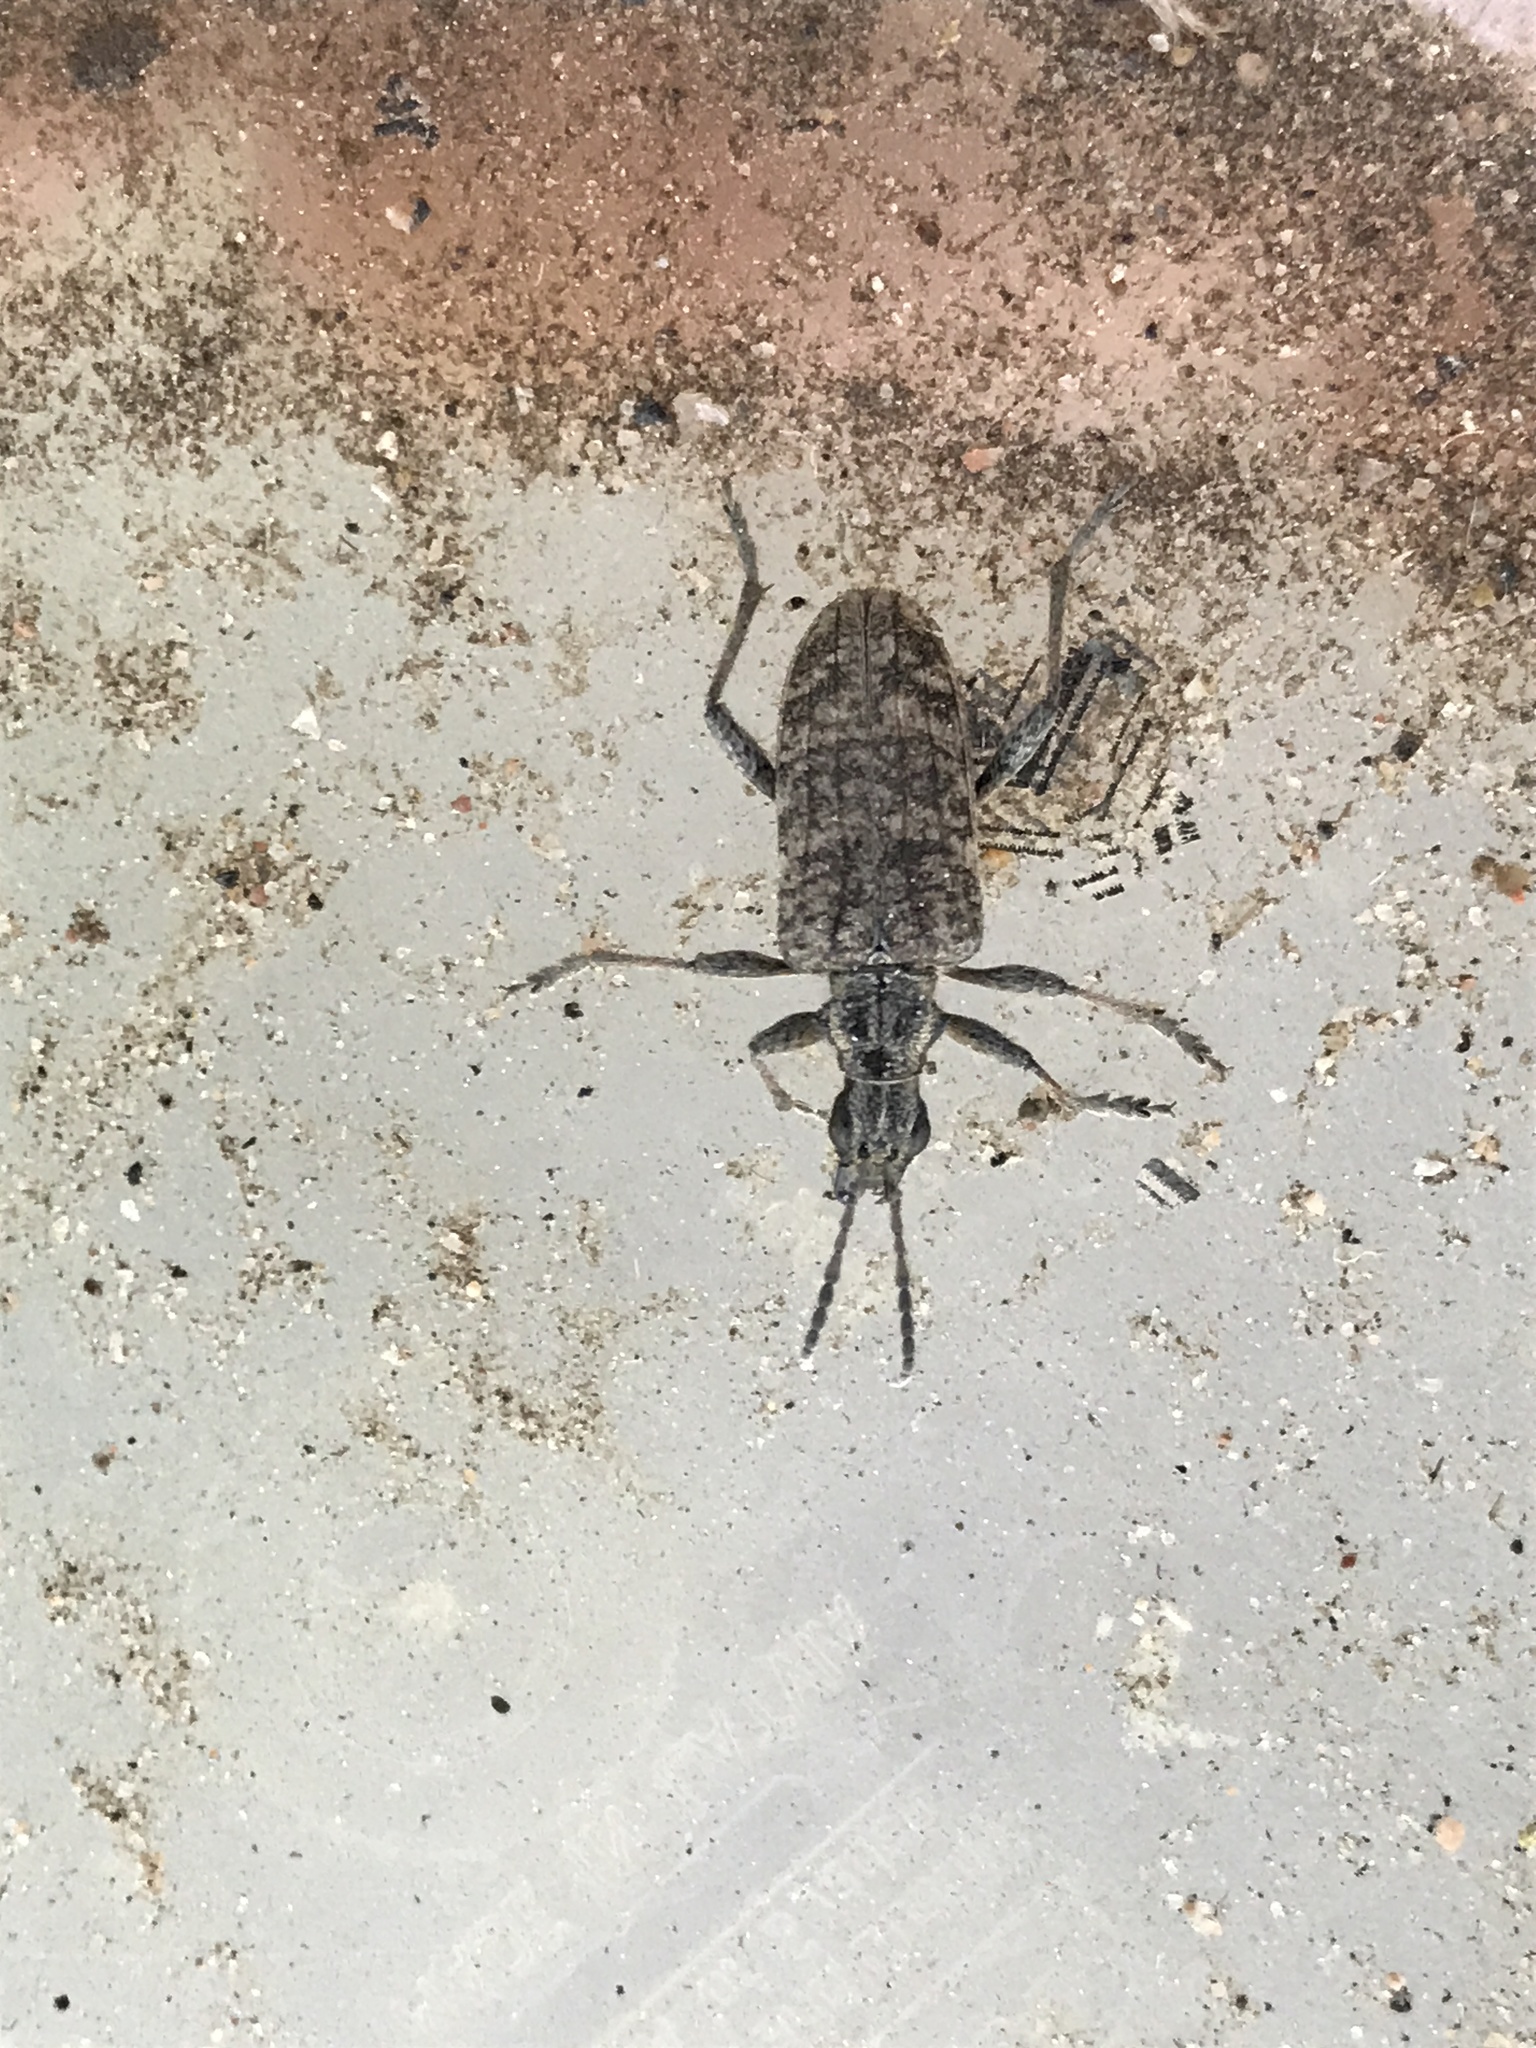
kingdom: Animalia
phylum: Arthropoda
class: Insecta
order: Coleoptera
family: Cerambycidae
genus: Rhagium
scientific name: Rhagium inquisitor
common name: Ribbed pine borer
